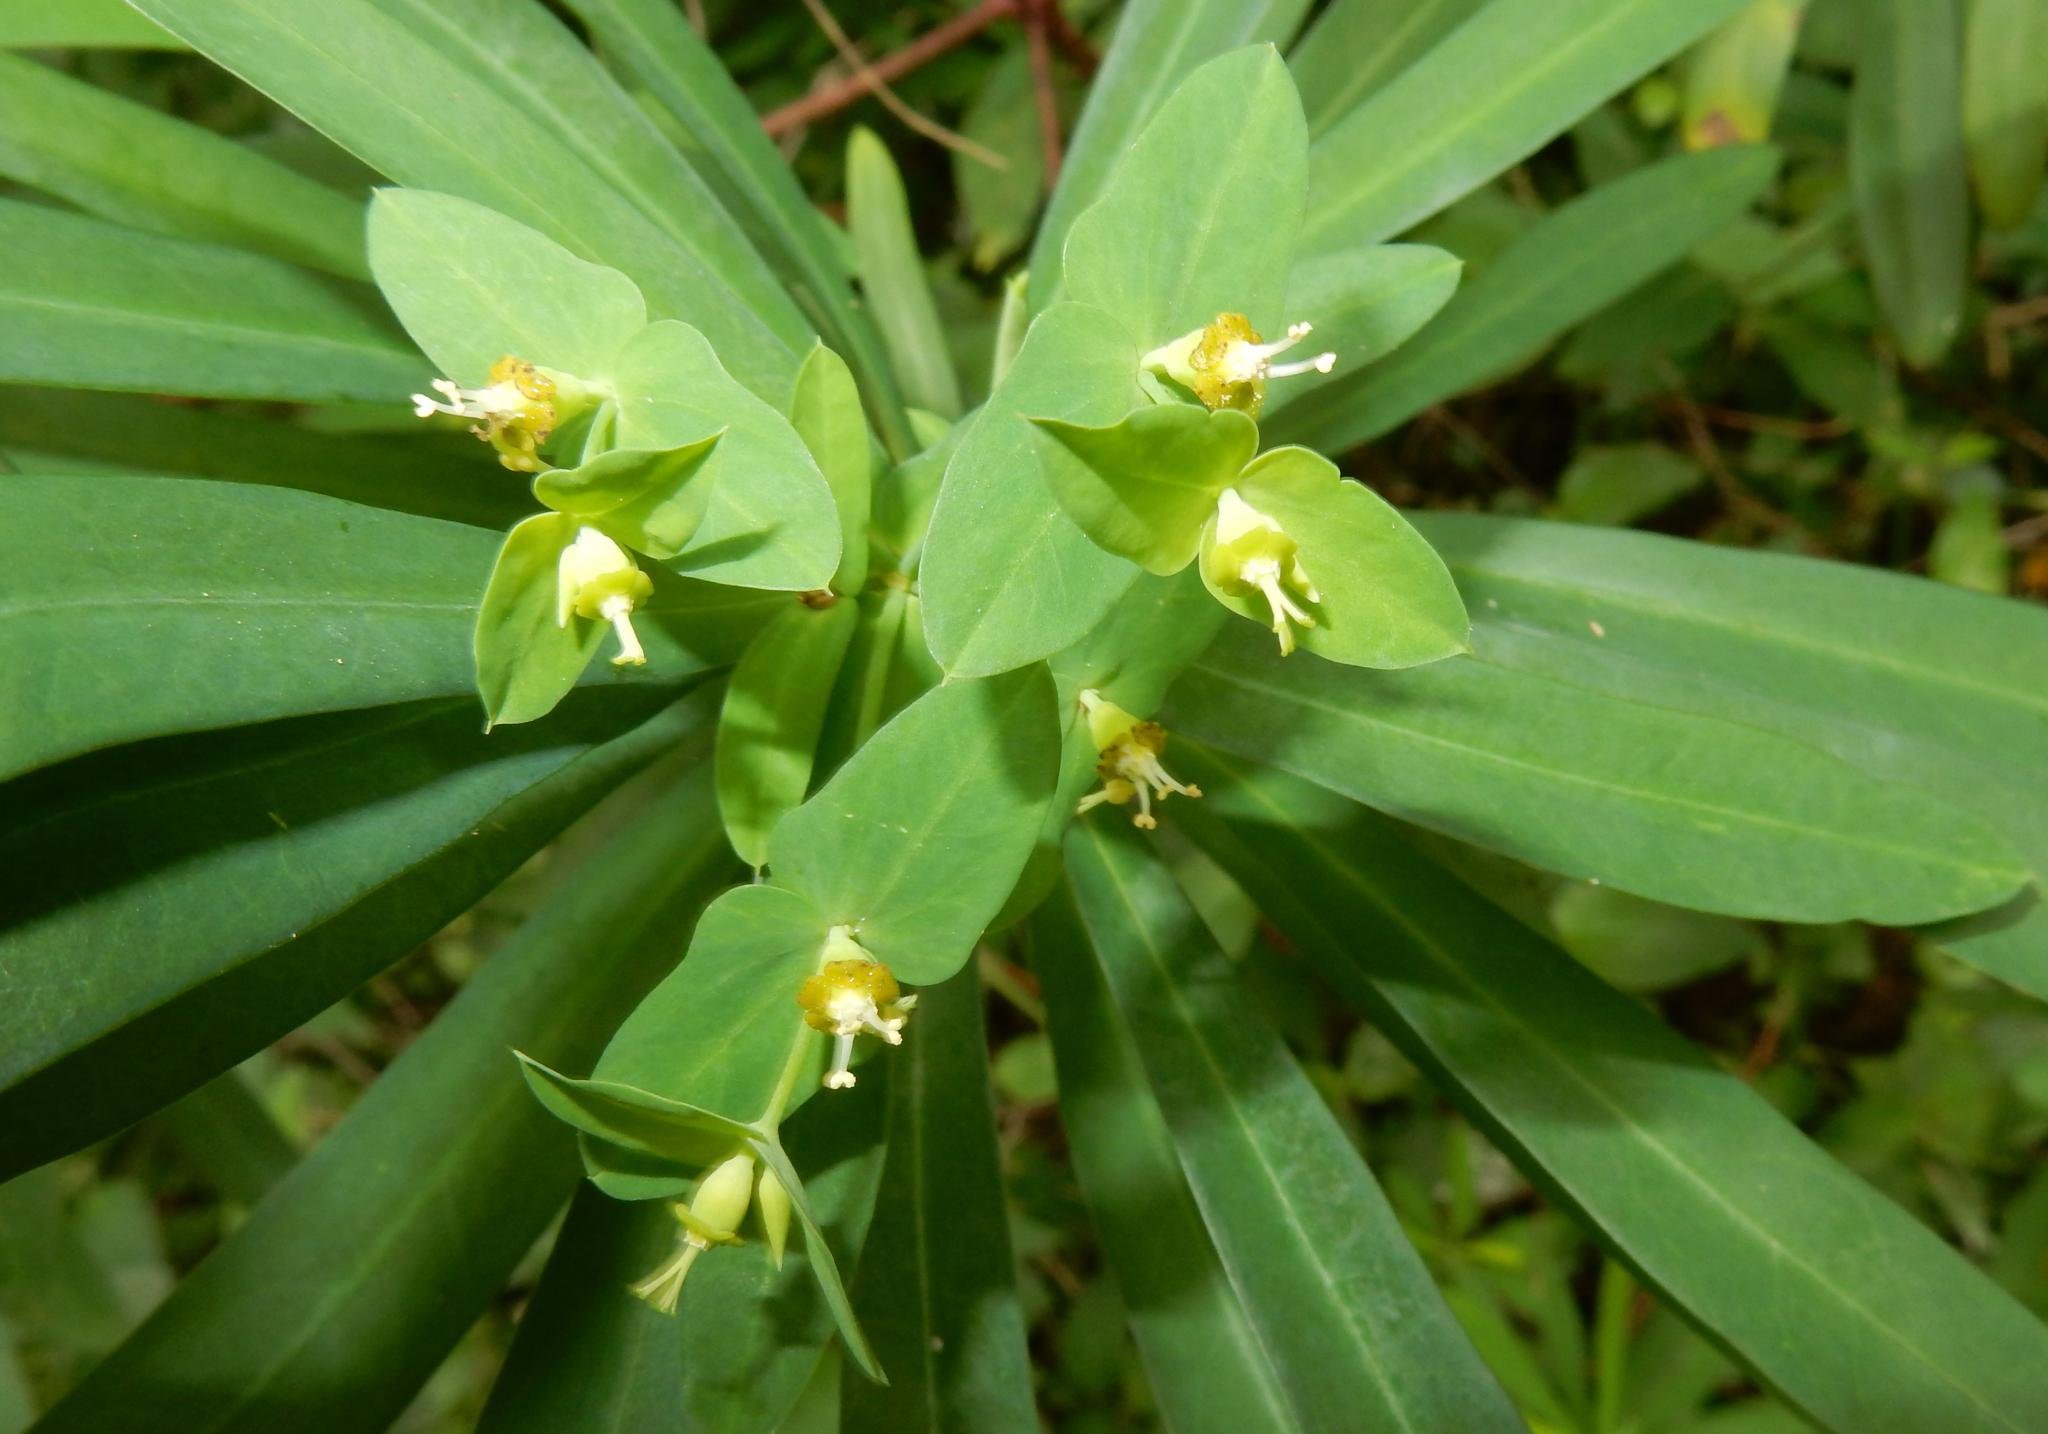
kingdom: Plantae
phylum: Tracheophyta
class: Magnoliopsida
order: Malpighiales
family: Euphorbiaceae
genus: Euphorbia
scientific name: Euphorbia kraussiana
